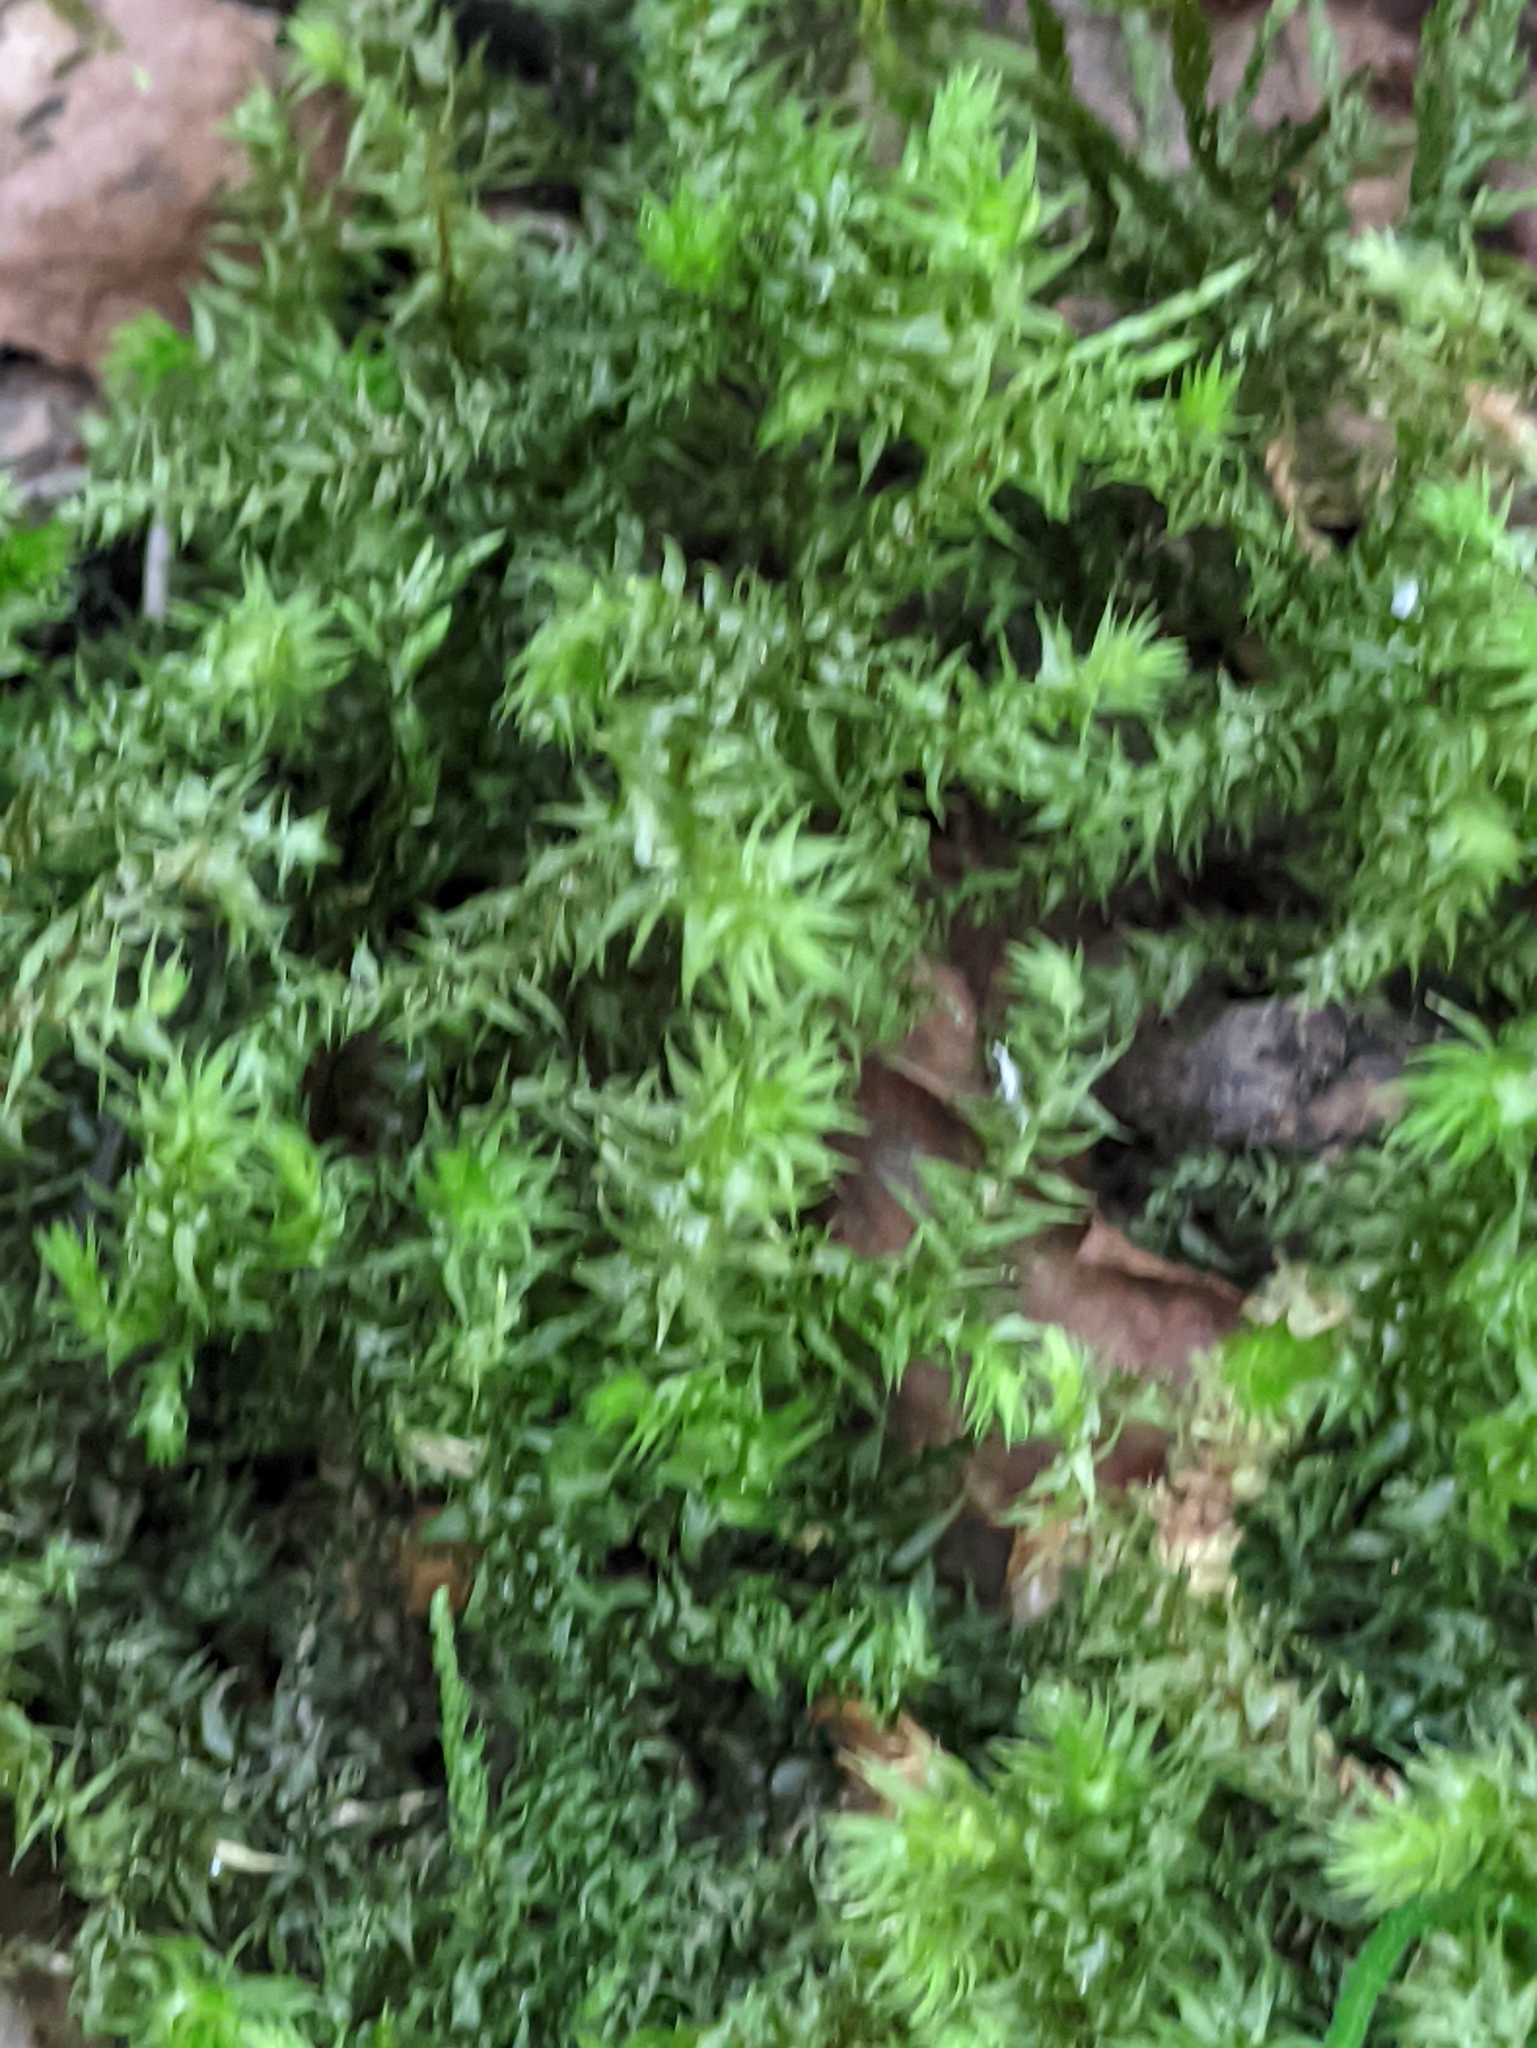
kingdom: Plantae
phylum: Bryophyta
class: Bryopsida
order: Hypnales
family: Hylocomiaceae
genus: Hylocomiadelphus
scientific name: Hylocomiadelphus triquetrus
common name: Rough goose neck moss
